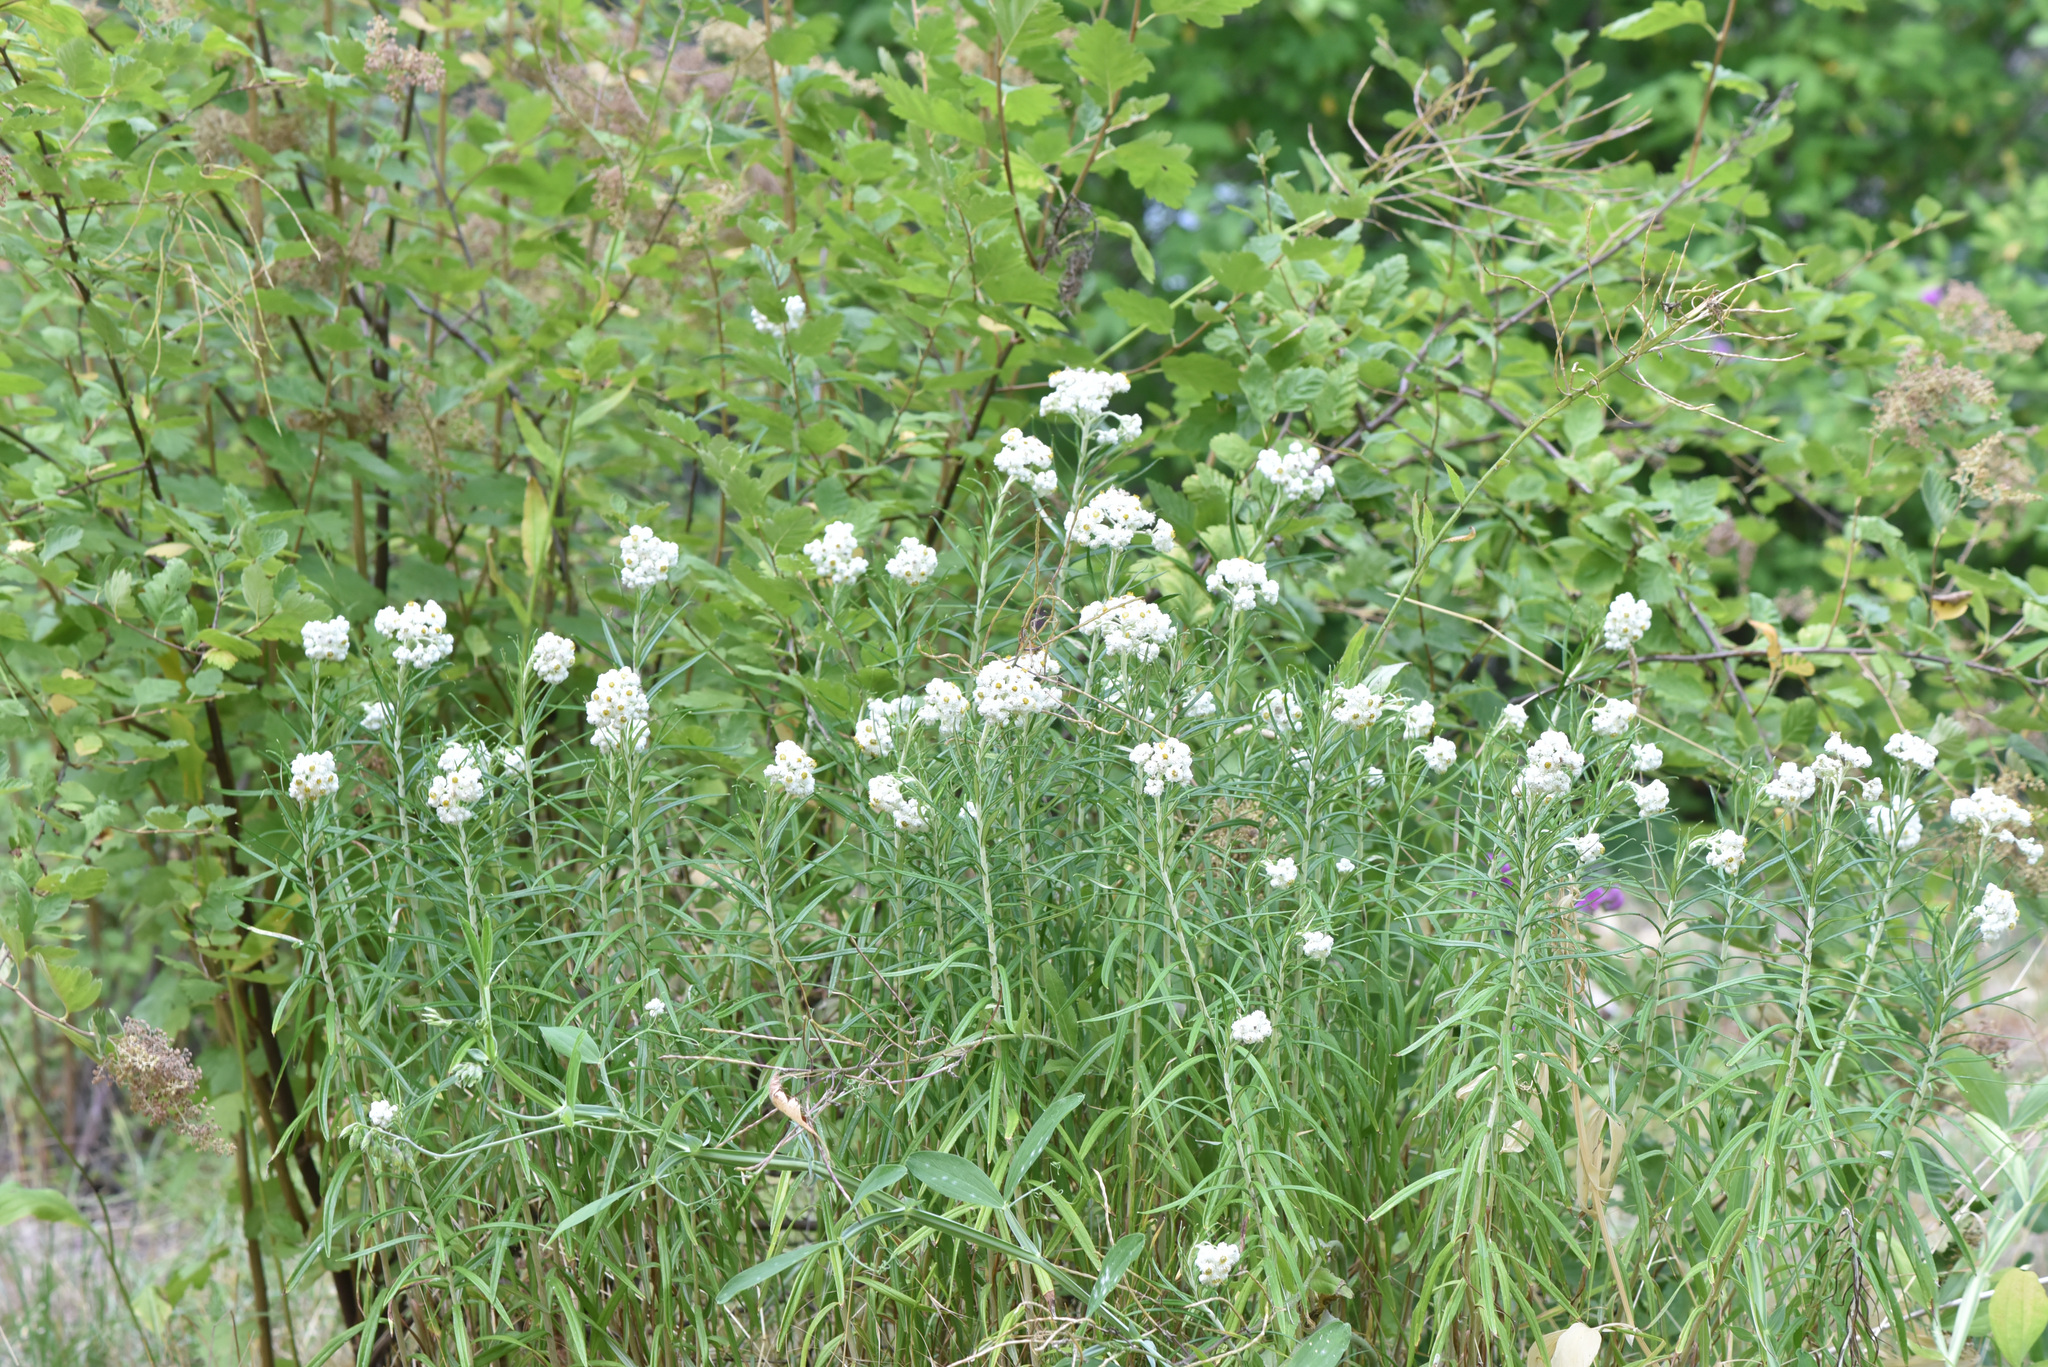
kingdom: Plantae
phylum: Tracheophyta
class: Magnoliopsida
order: Asterales
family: Asteraceae
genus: Anaphalis
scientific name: Anaphalis margaritacea
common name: Pearly everlasting
